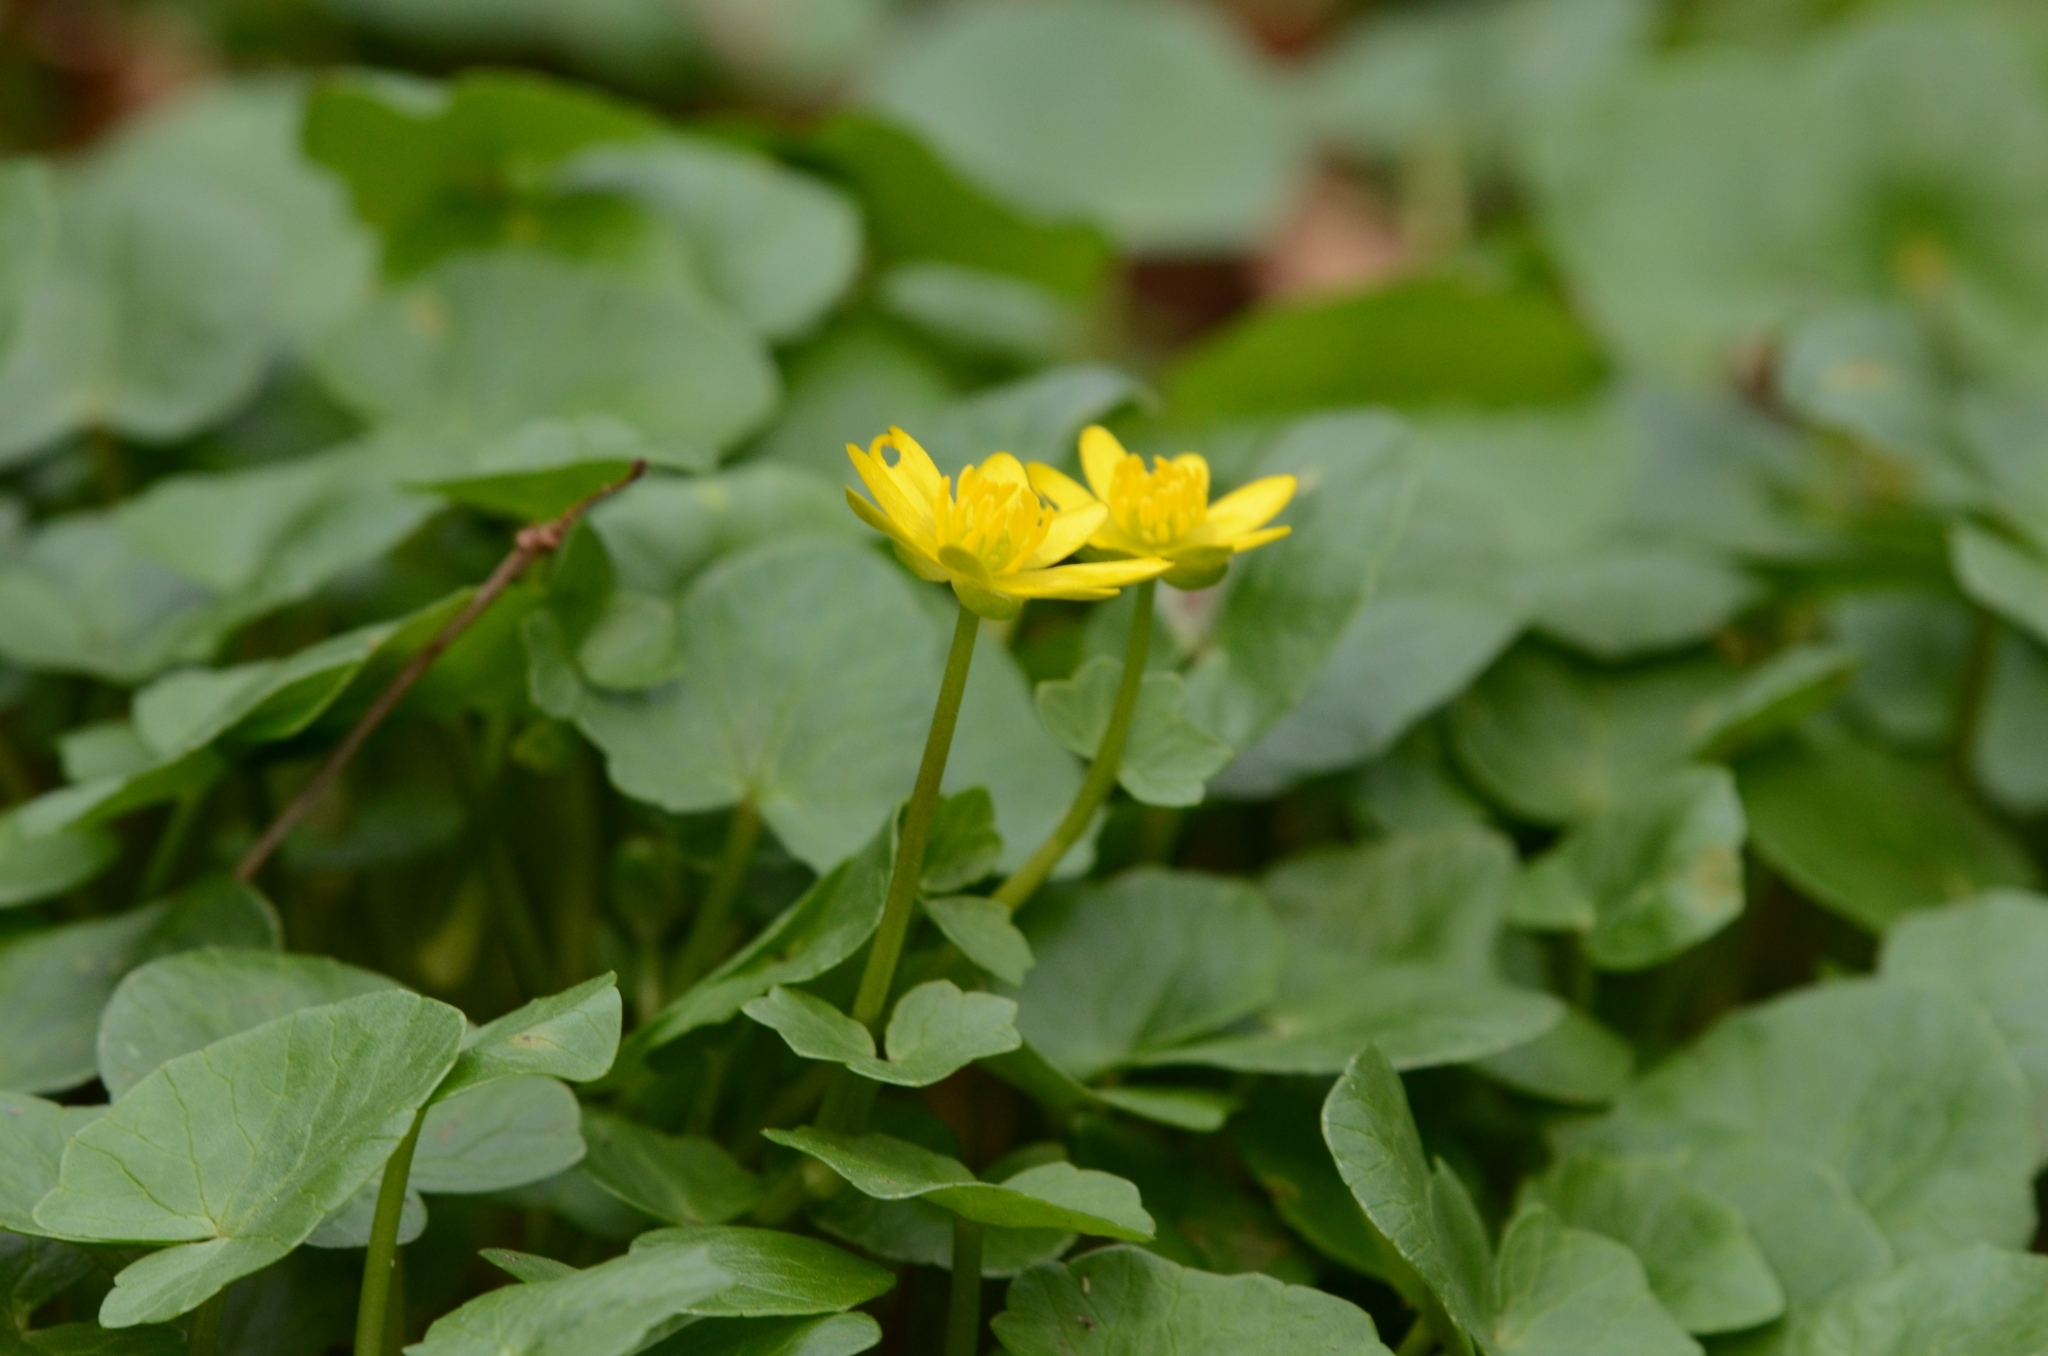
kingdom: Plantae
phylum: Tracheophyta
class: Magnoliopsida
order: Ranunculales
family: Ranunculaceae
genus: Ficaria
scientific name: Ficaria verna
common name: Lesser celandine
